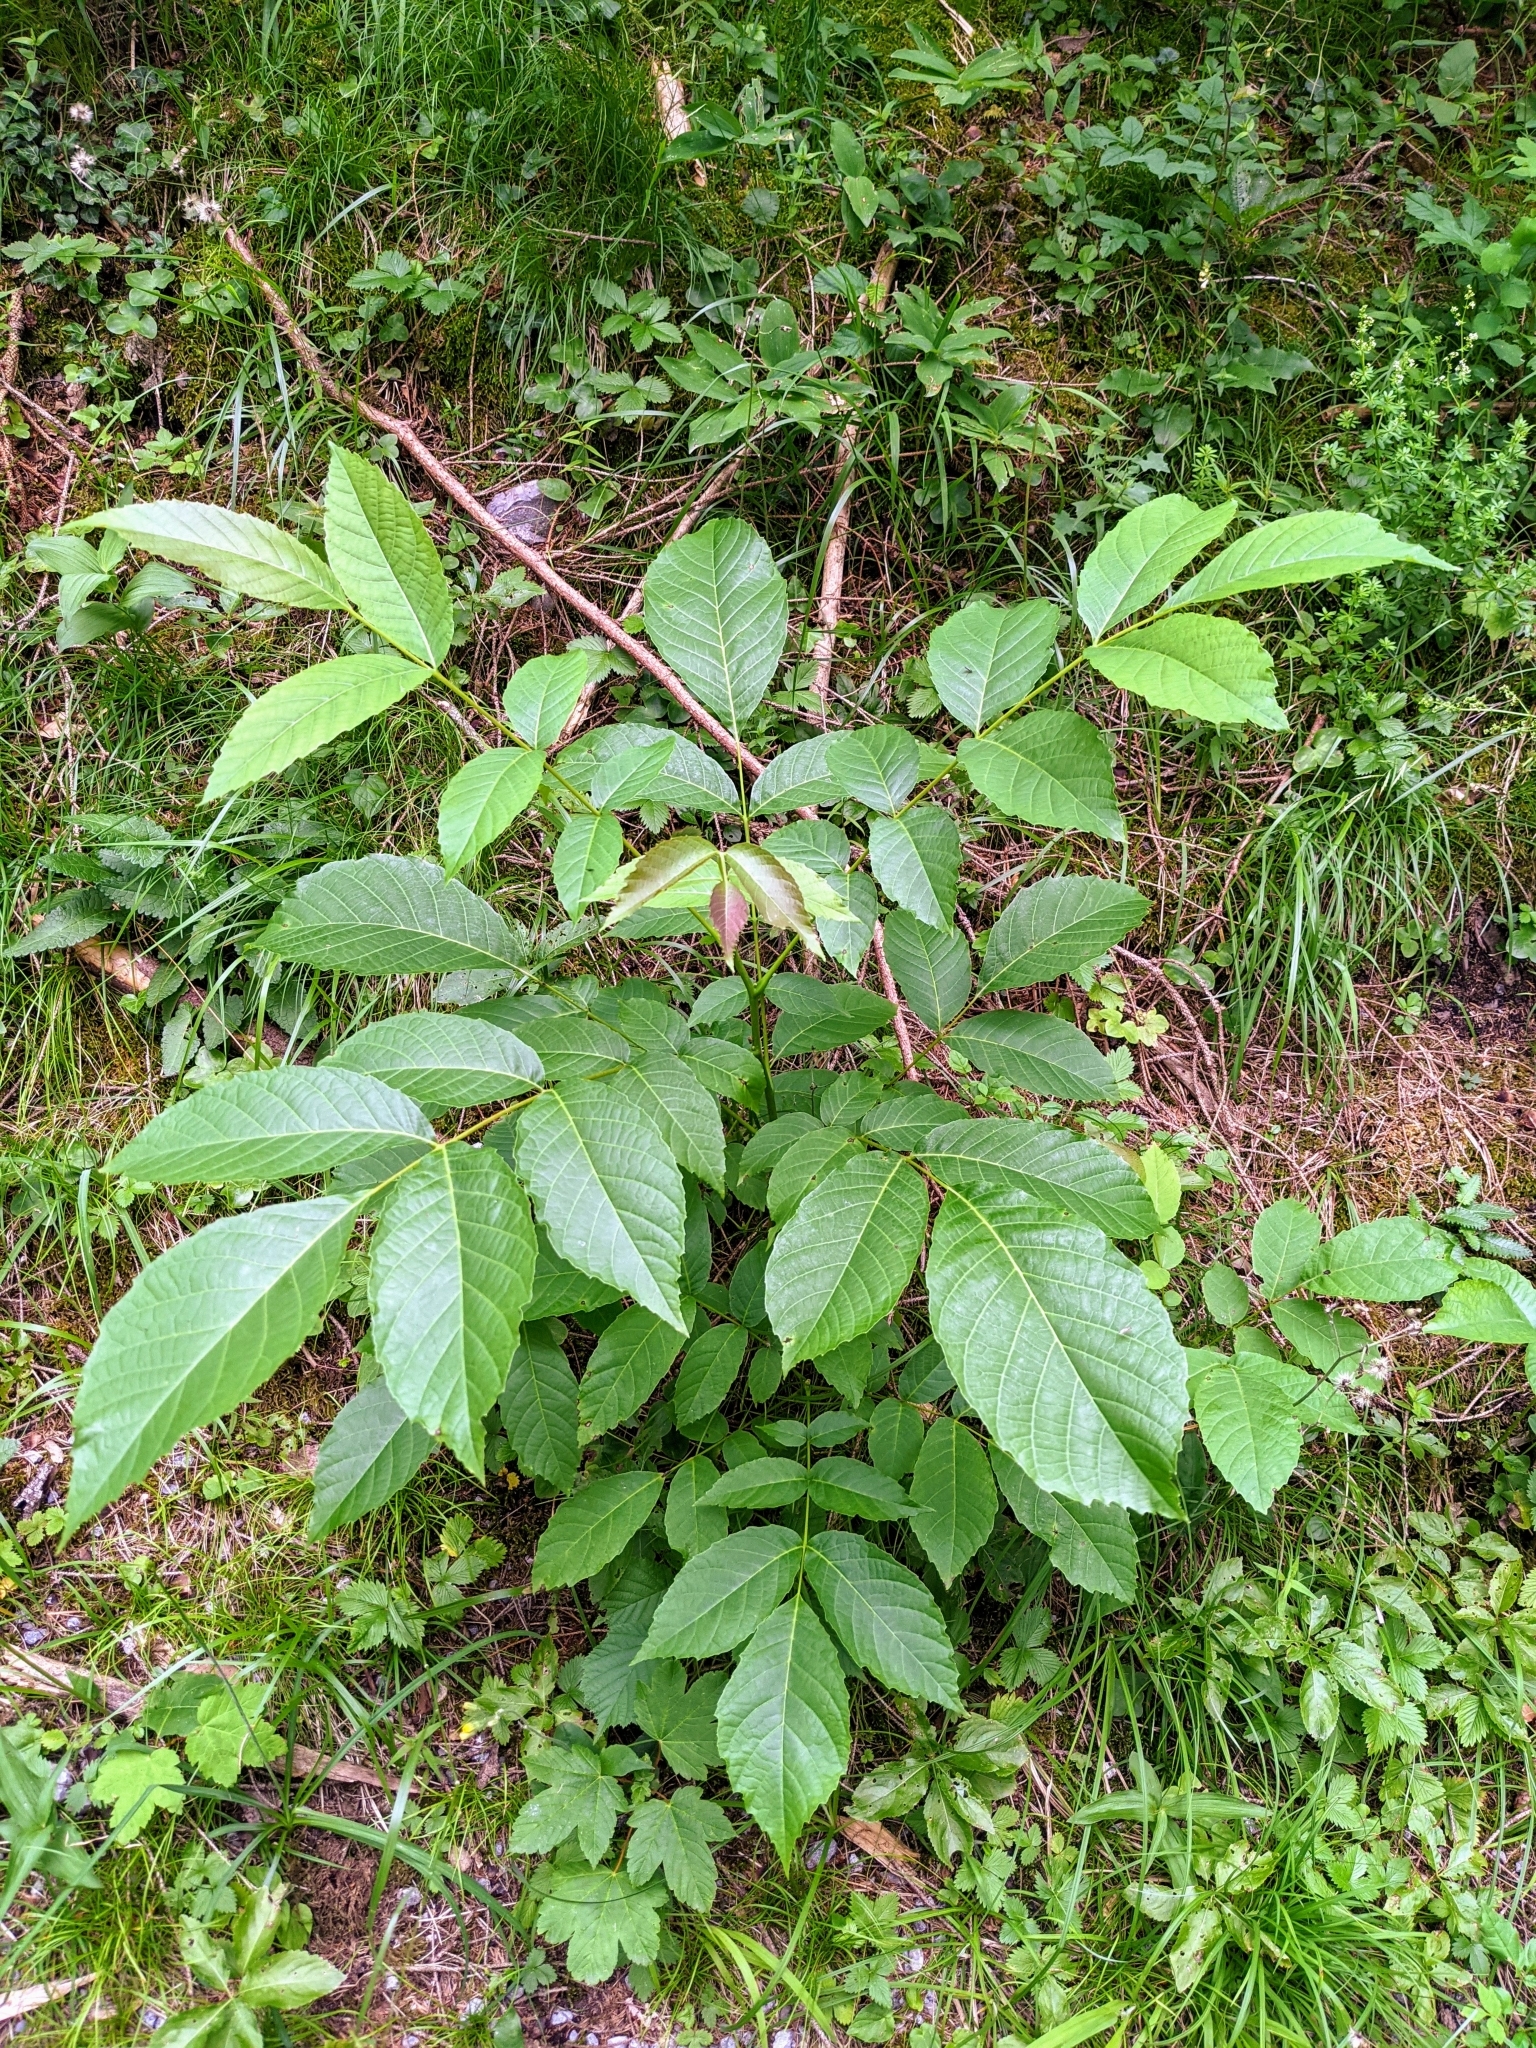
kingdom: Plantae
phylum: Tracheophyta
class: Magnoliopsida
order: Fagales
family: Juglandaceae
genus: Juglans
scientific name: Juglans regia
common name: Walnut
